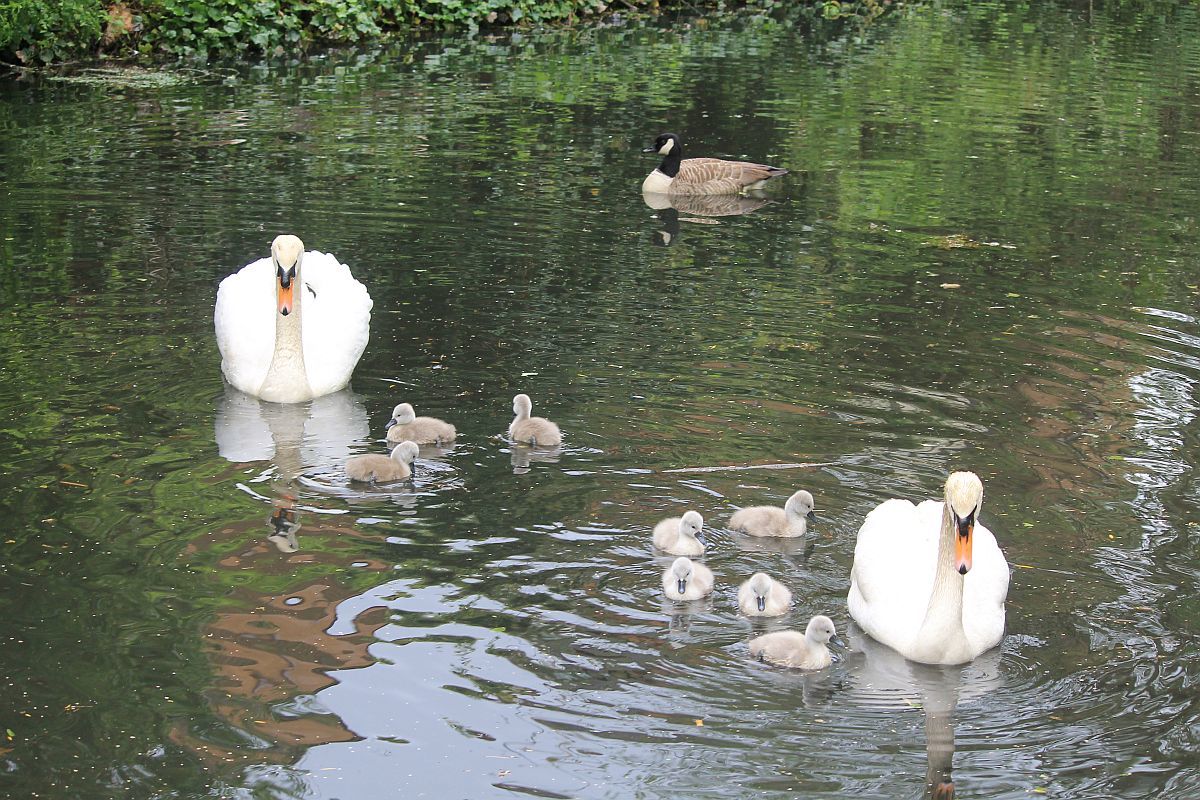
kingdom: Animalia
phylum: Chordata
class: Aves
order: Anseriformes
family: Anatidae
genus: Cygnus
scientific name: Cygnus olor
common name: Mute swan
